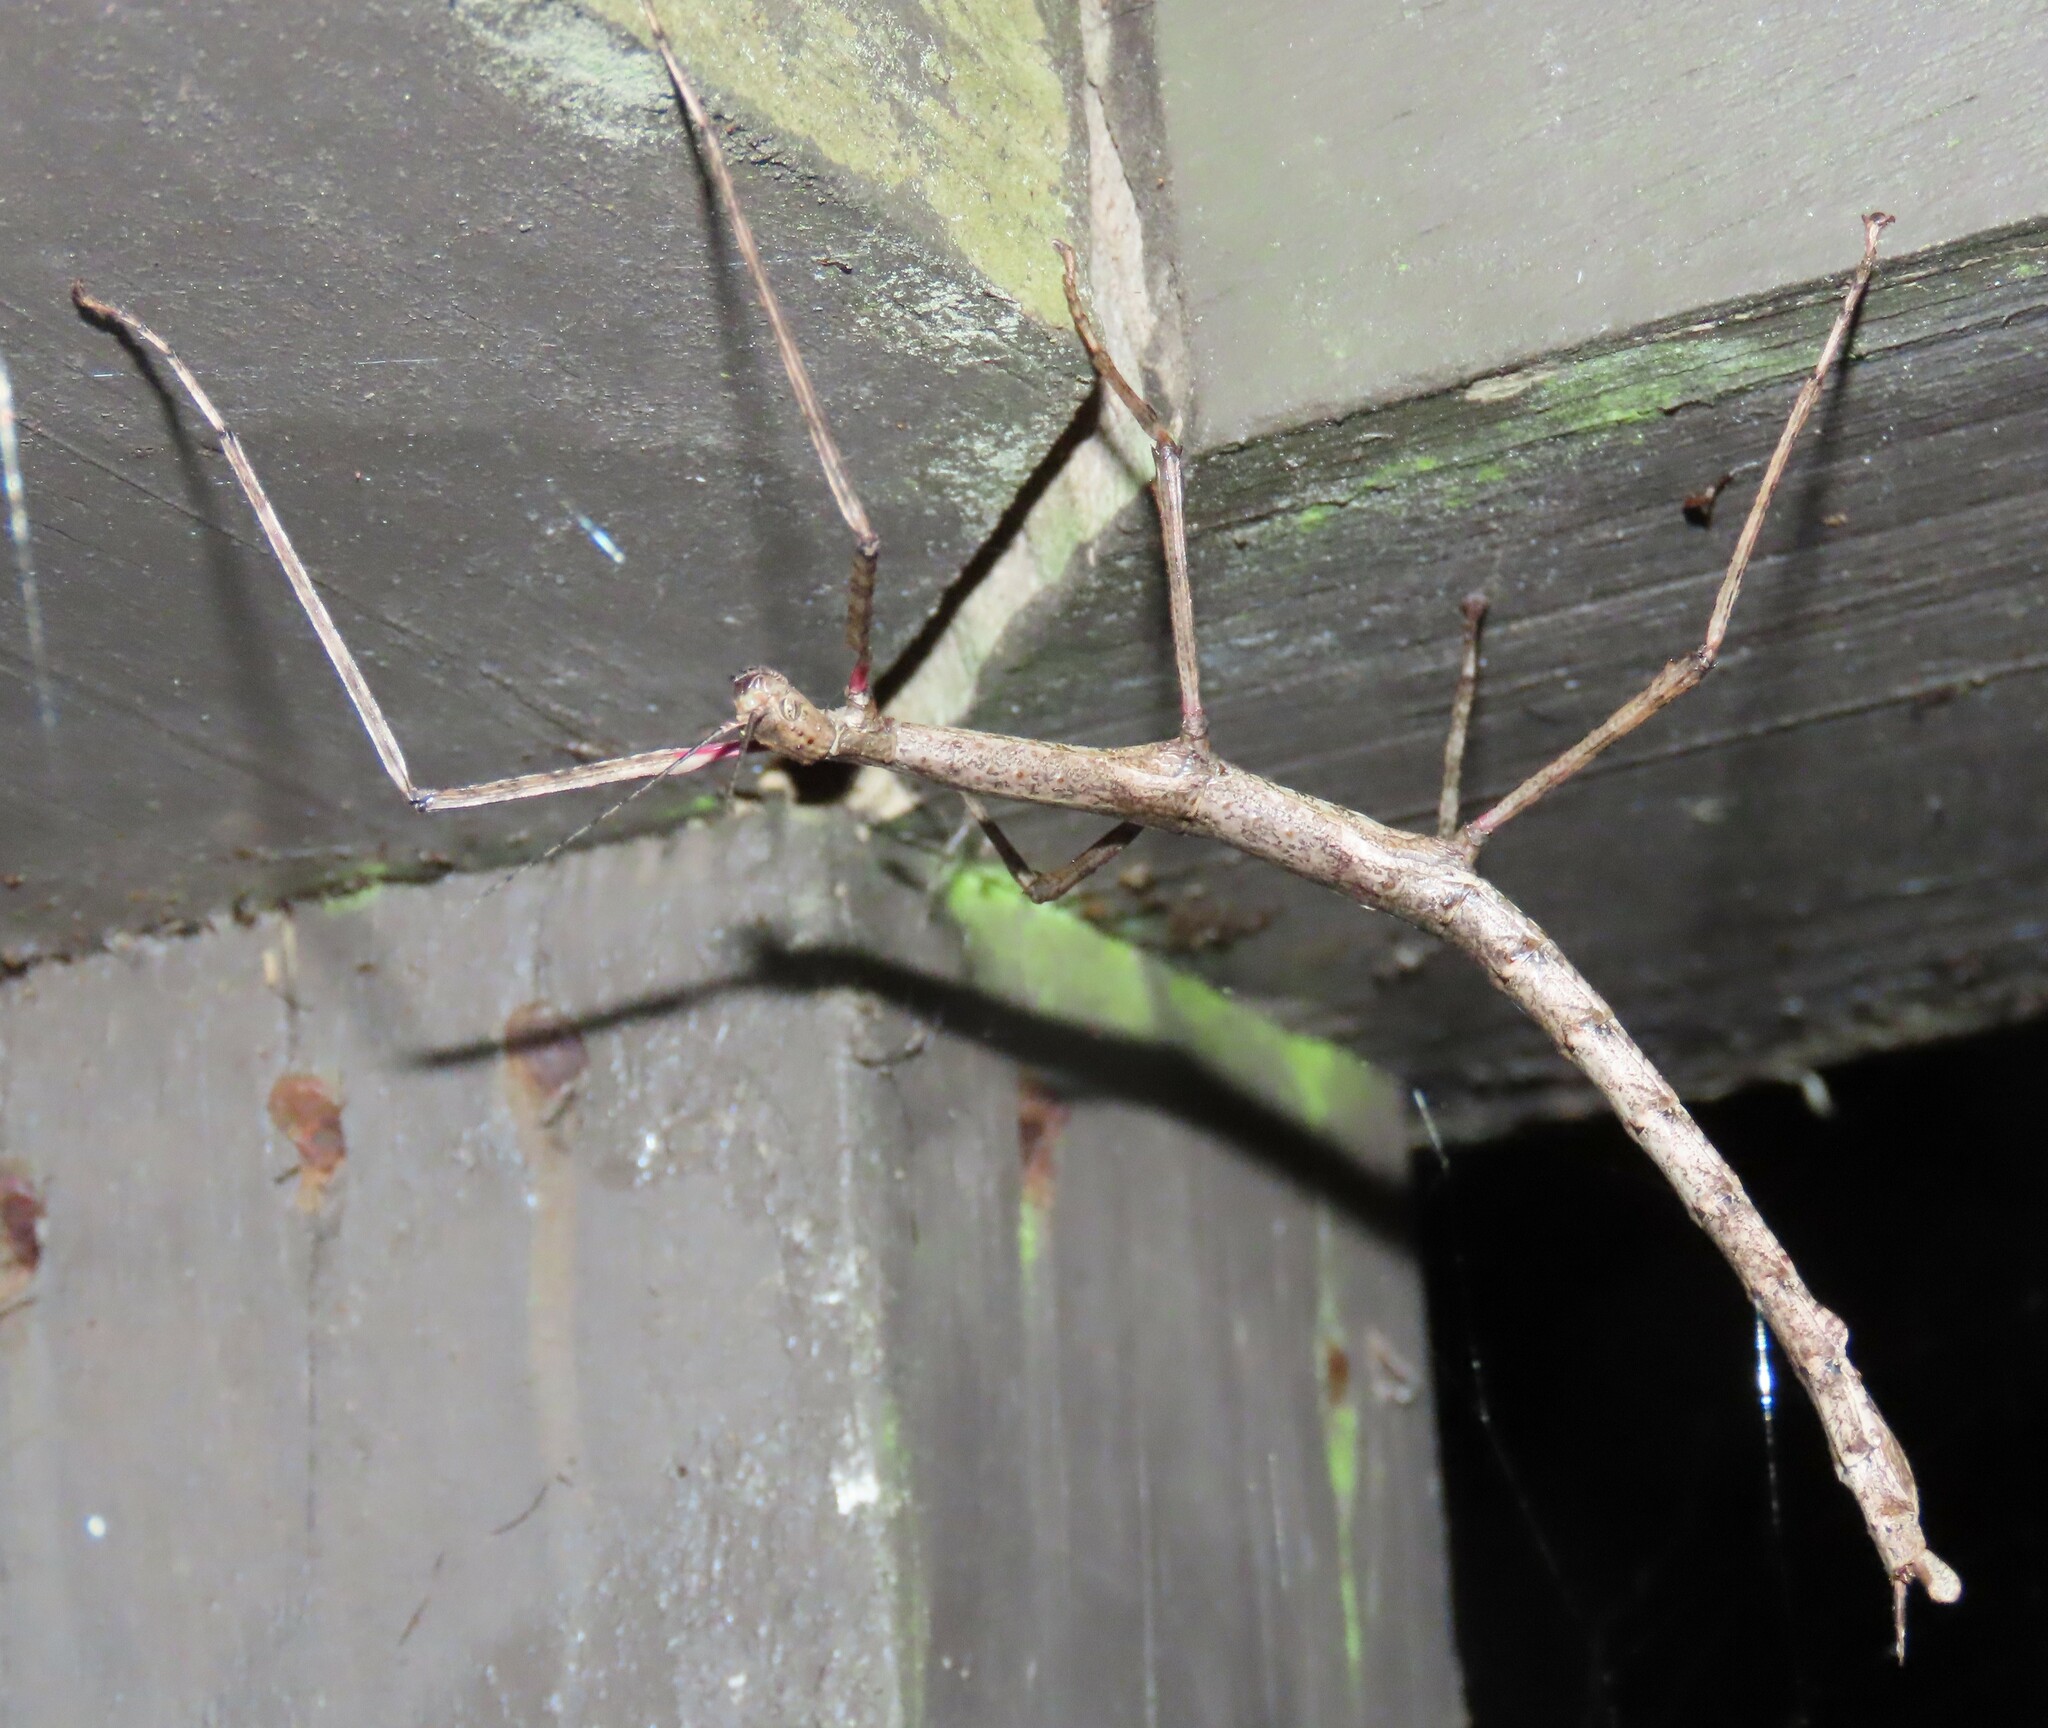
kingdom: Animalia
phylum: Arthropoda
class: Insecta
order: Phasmida
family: Phasmatidae
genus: Acanthoxyla
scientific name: Acanthoxyla inermis
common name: Unarmed stick insect
